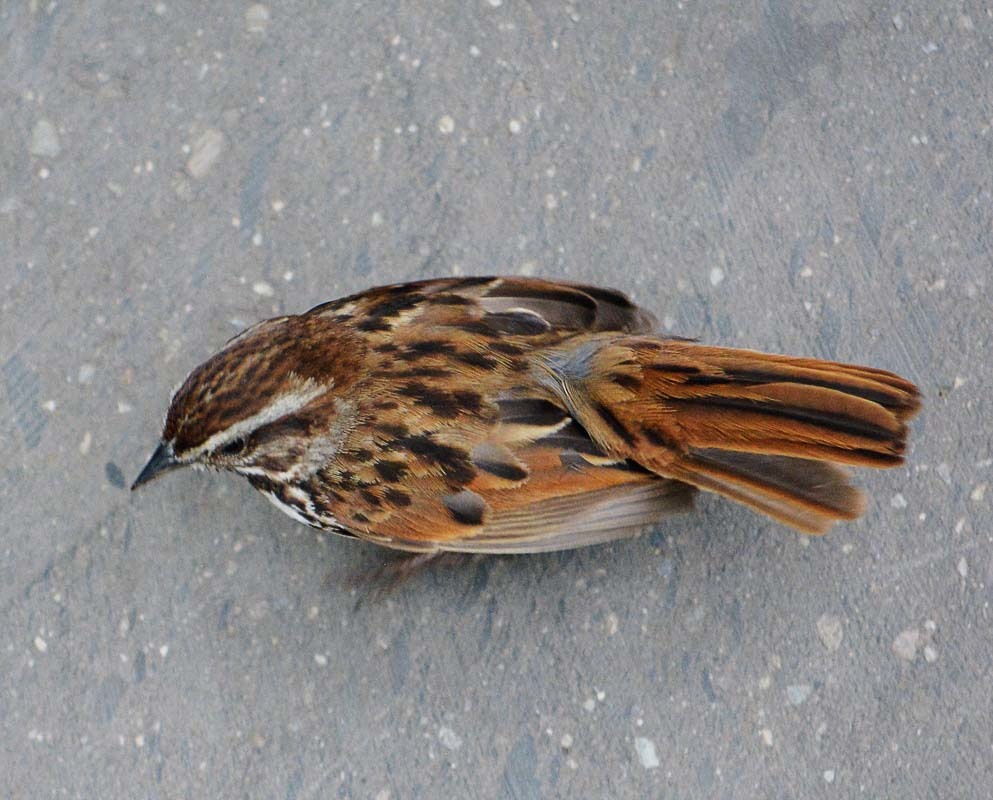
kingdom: Animalia
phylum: Chordata
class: Aves
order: Passeriformes
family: Passerellidae
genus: Melospiza
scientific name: Melospiza melodia
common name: Song sparrow
